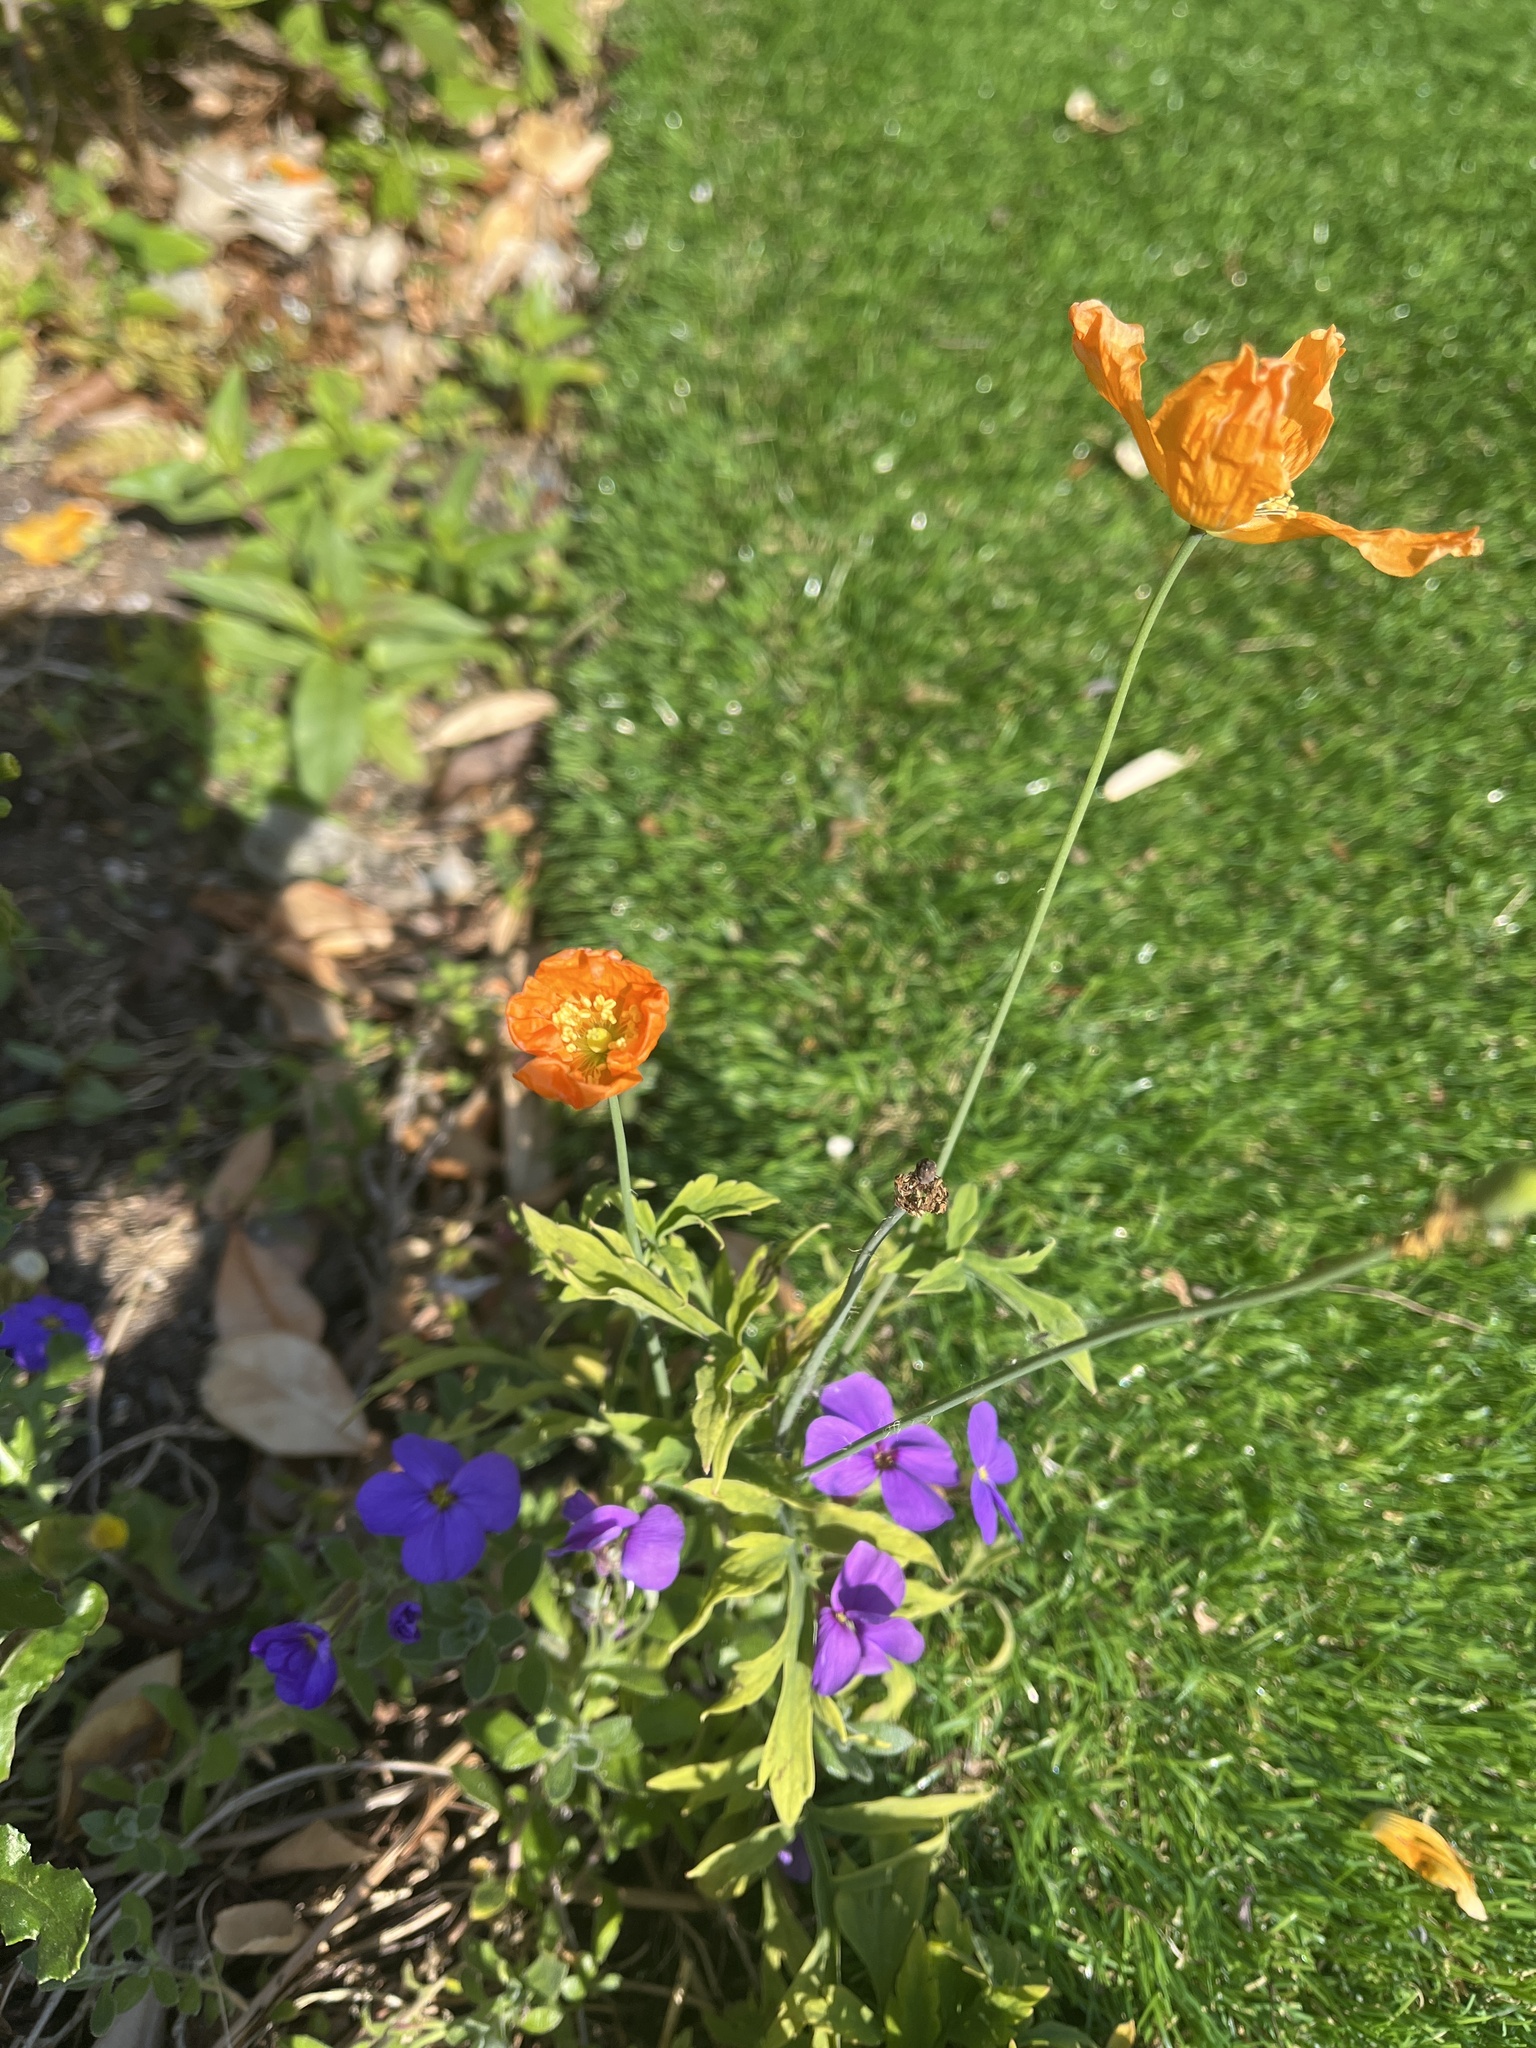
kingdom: Plantae
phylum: Tracheophyta
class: Magnoliopsida
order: Ranunculales
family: Papaveraceae
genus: Papaver
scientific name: Papaver cambricum
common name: Poppy
